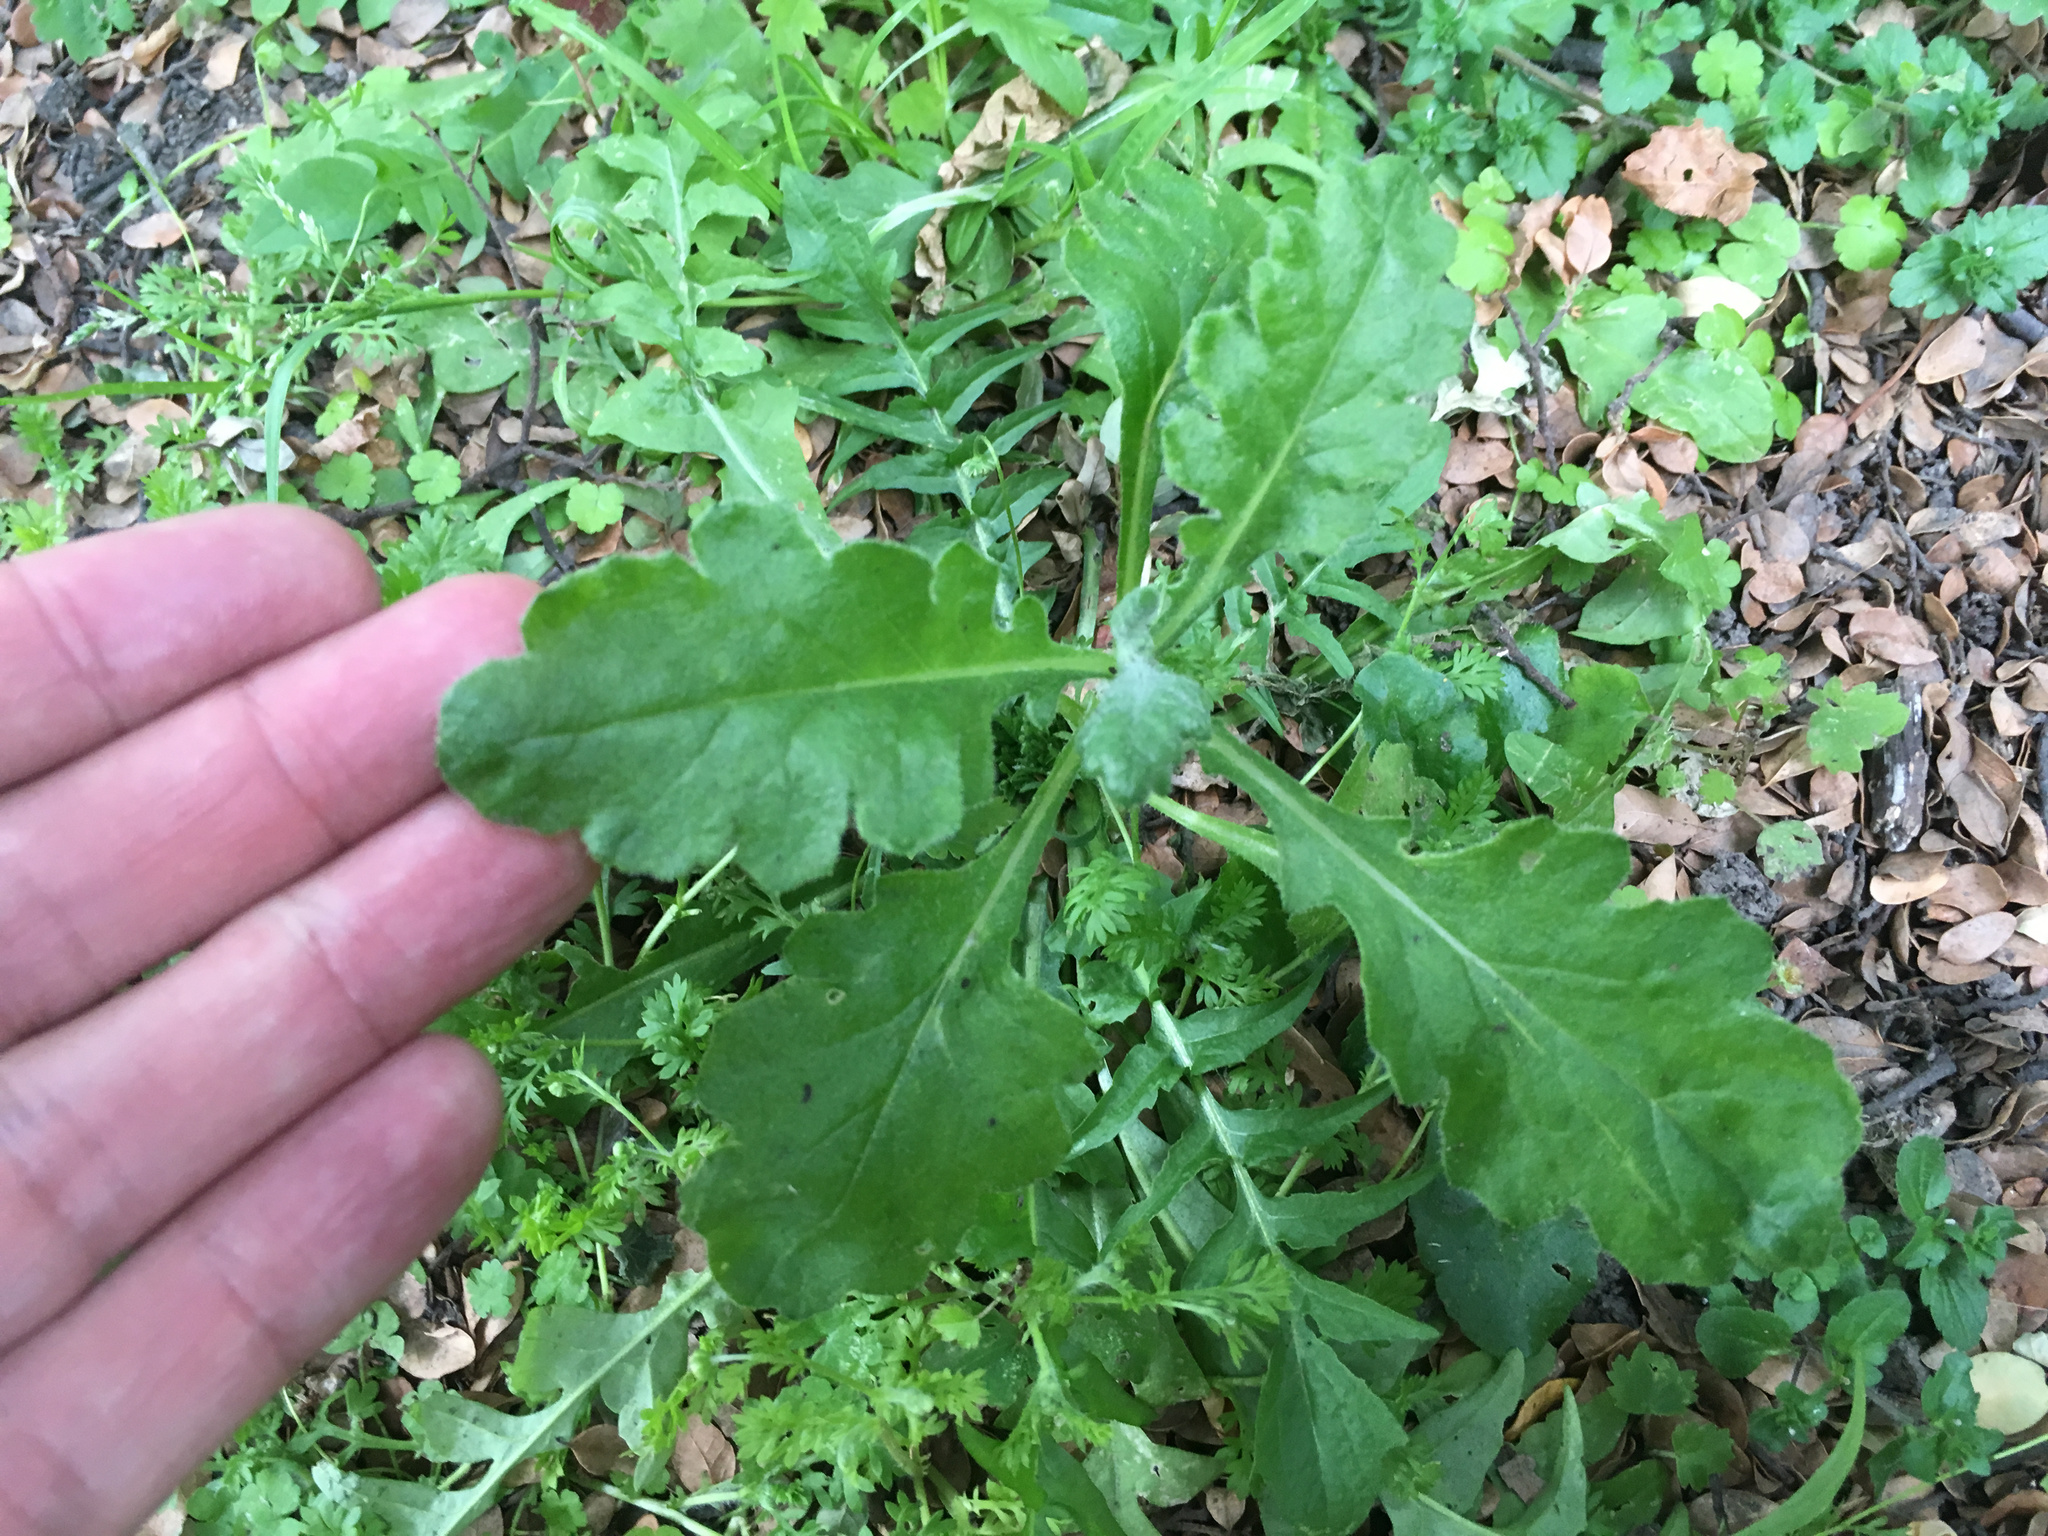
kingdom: Plantae
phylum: Tracheophyta
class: Magnoliopsida
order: Asterales
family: Asteraceae
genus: Senecio
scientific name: Senecio glomeratus
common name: Cutleaf burnweed
